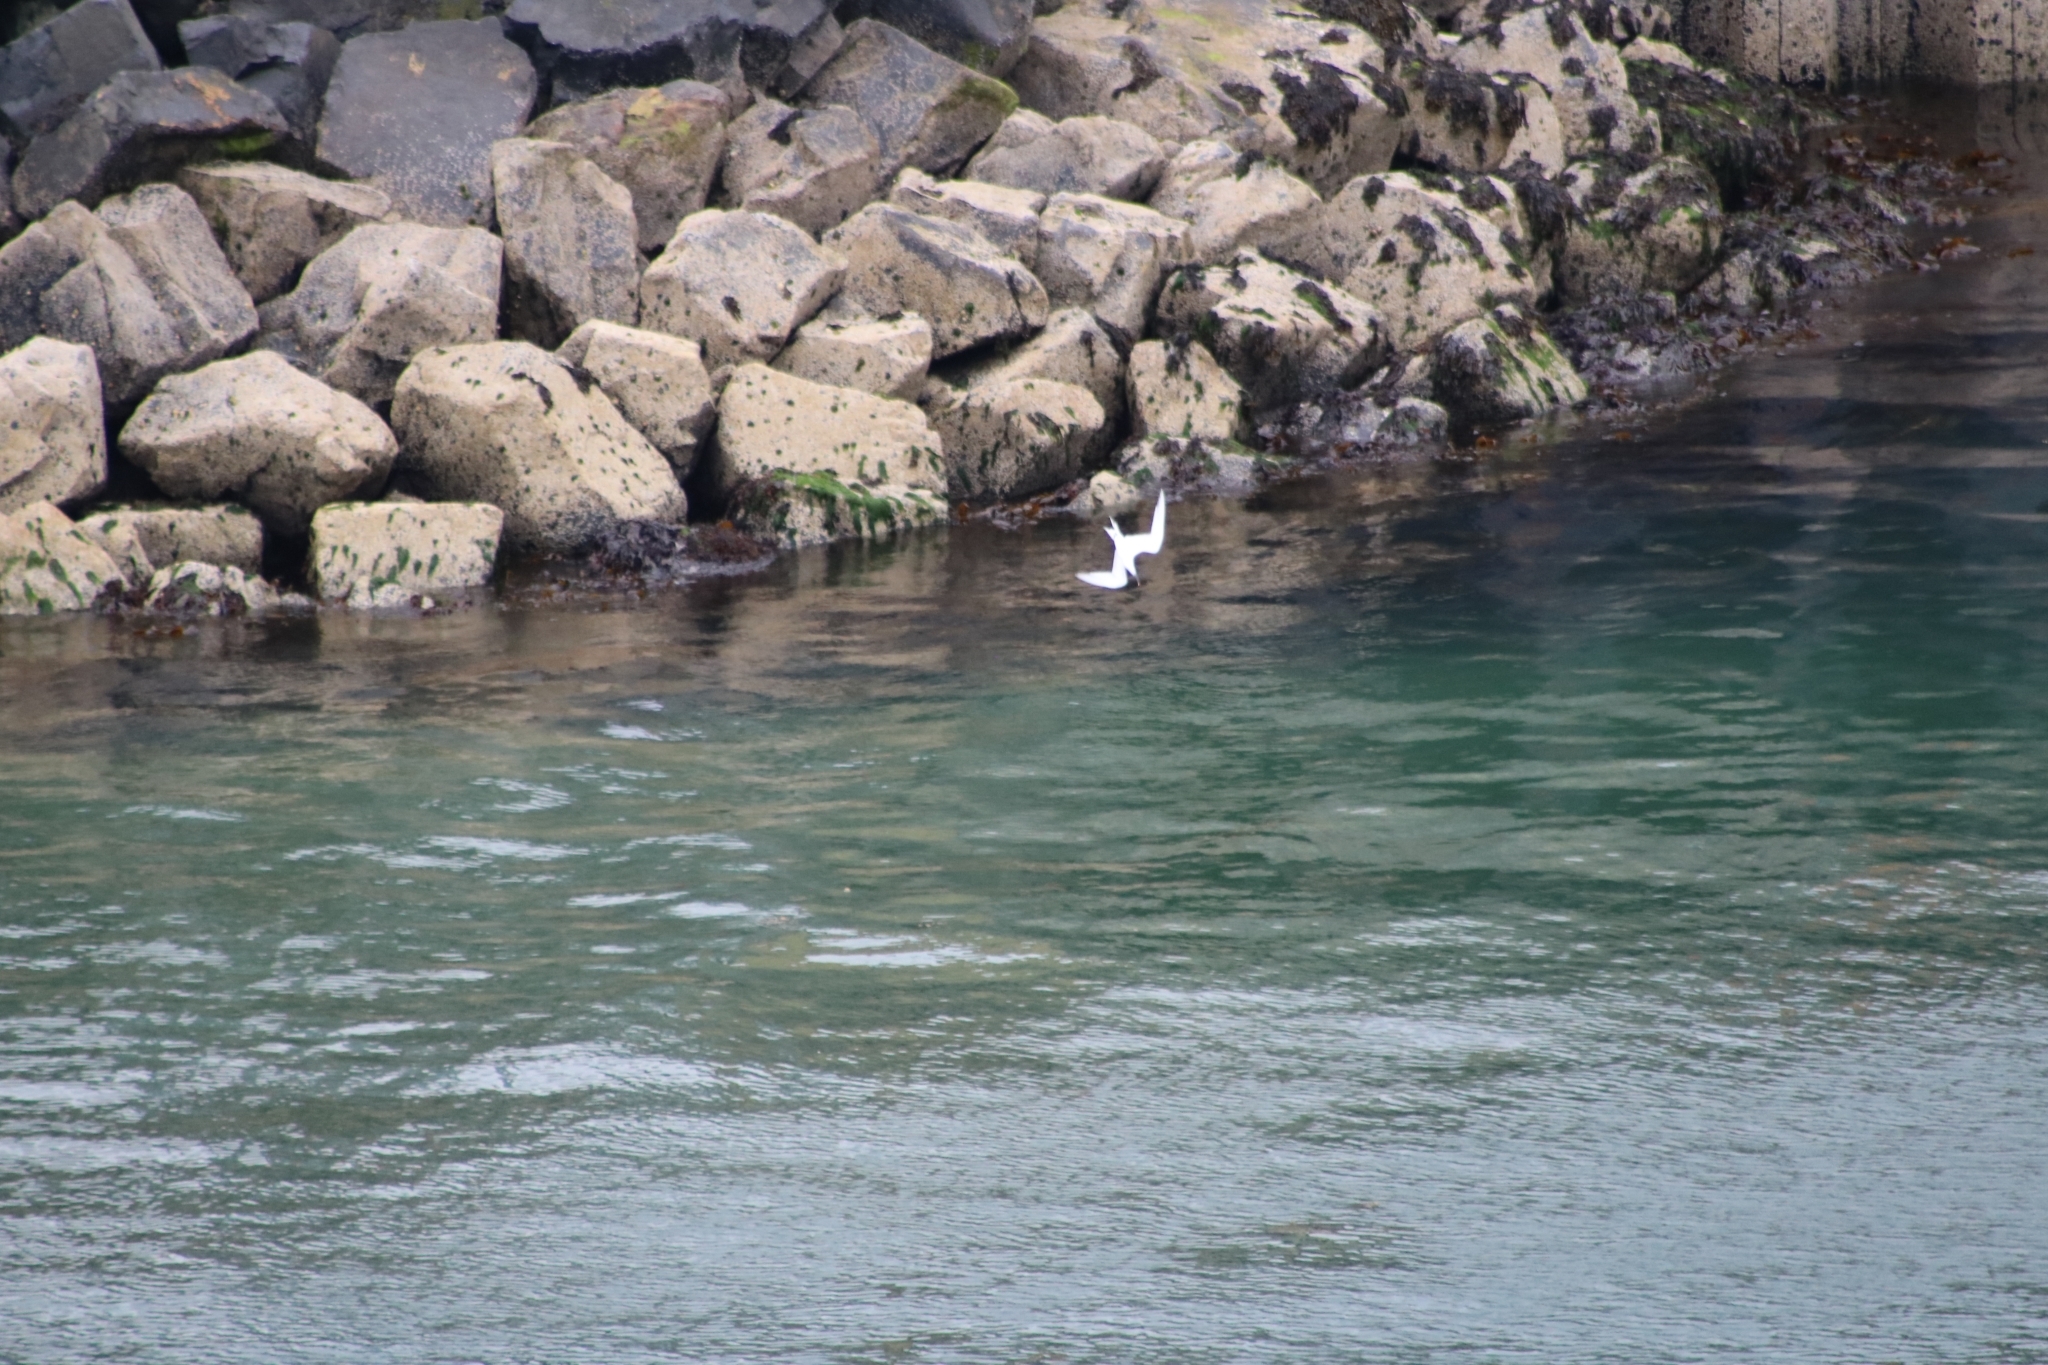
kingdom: Animalia
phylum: Chordata
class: Aves
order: Charadriiformes
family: Laridae
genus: Thalasseus
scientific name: Thalasseus sandvicensis
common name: Sandwich tern
